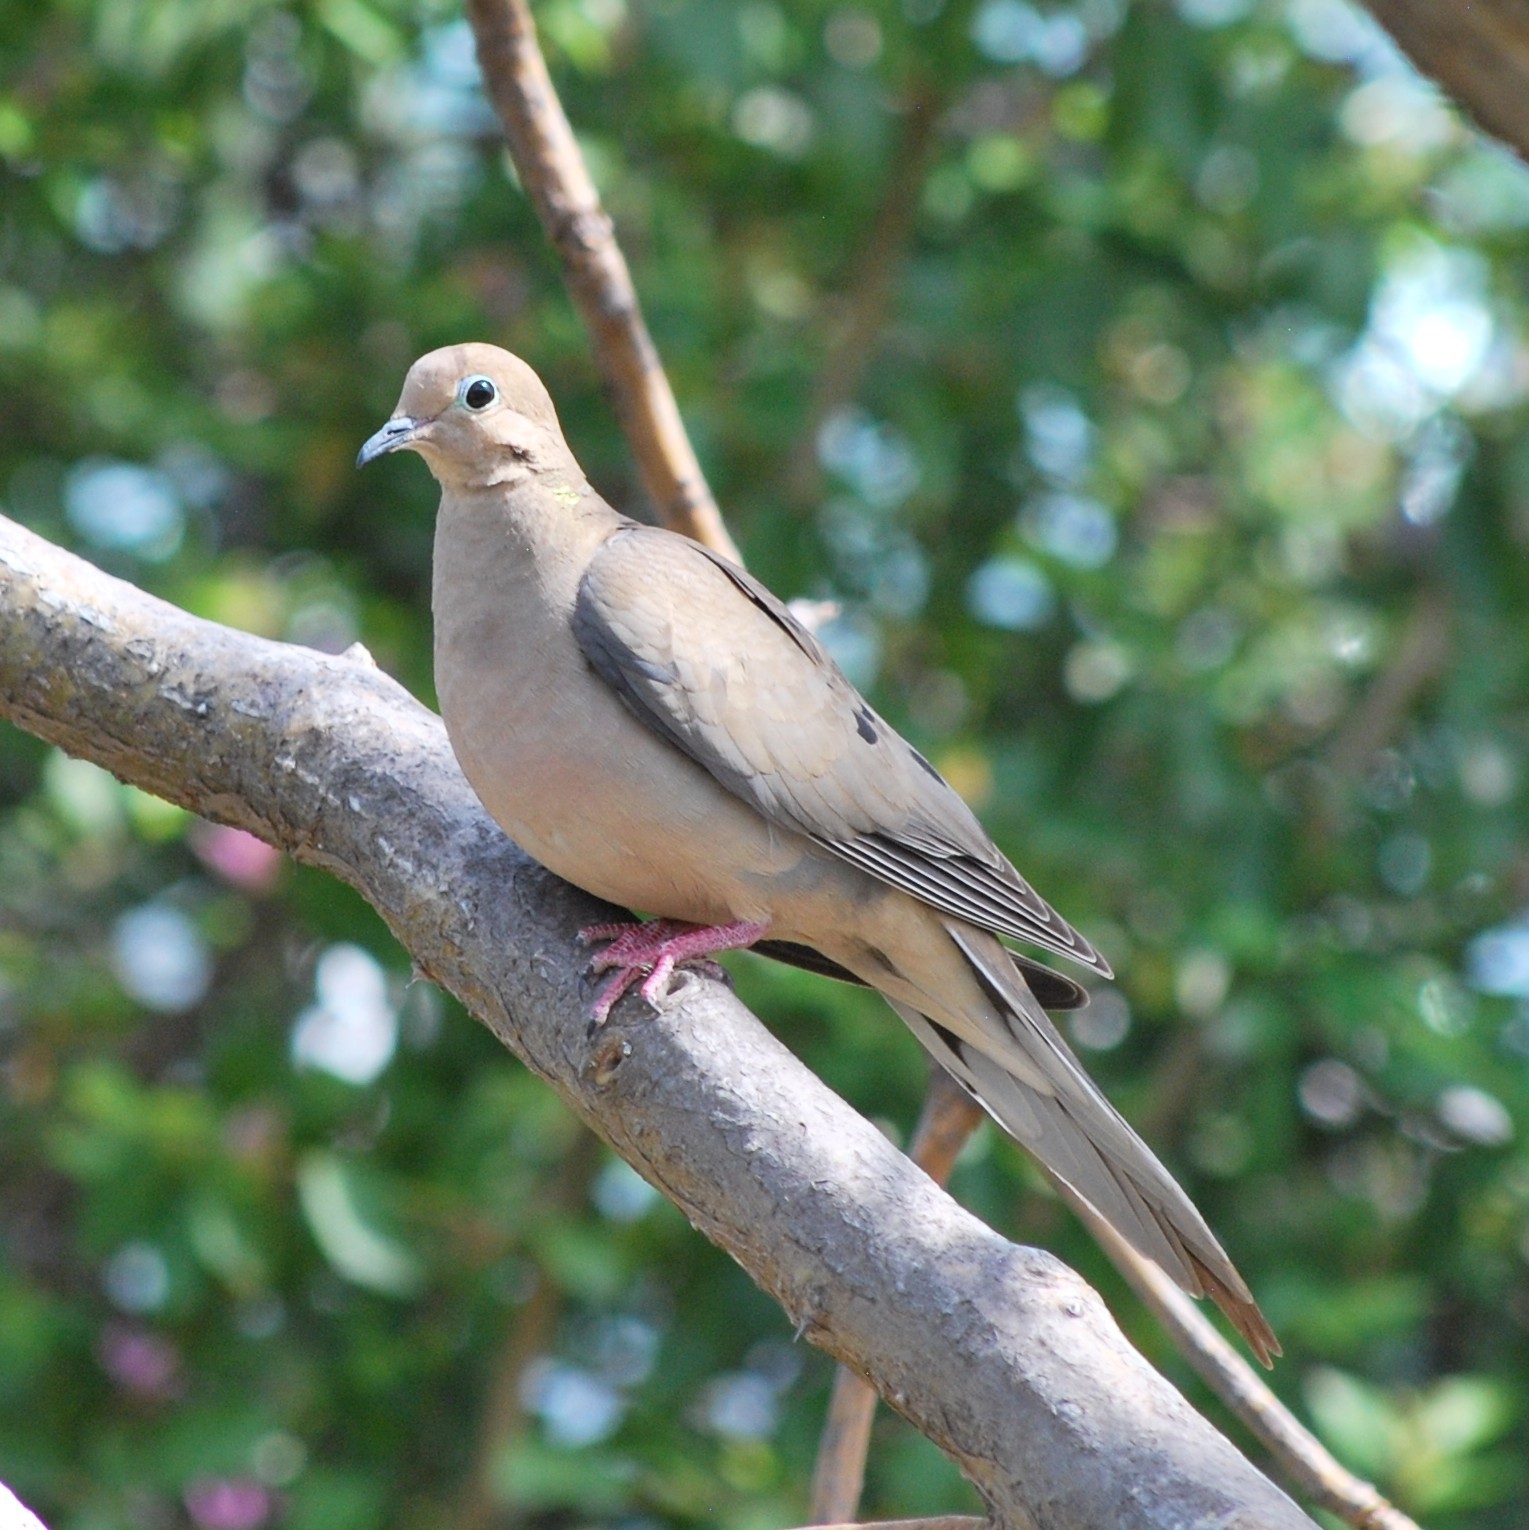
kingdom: Animalia
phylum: Chordata
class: Aves
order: Columbiformes
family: Columbidae
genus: Zenaida
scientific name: Zenaida macroura
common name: Mourning dove
